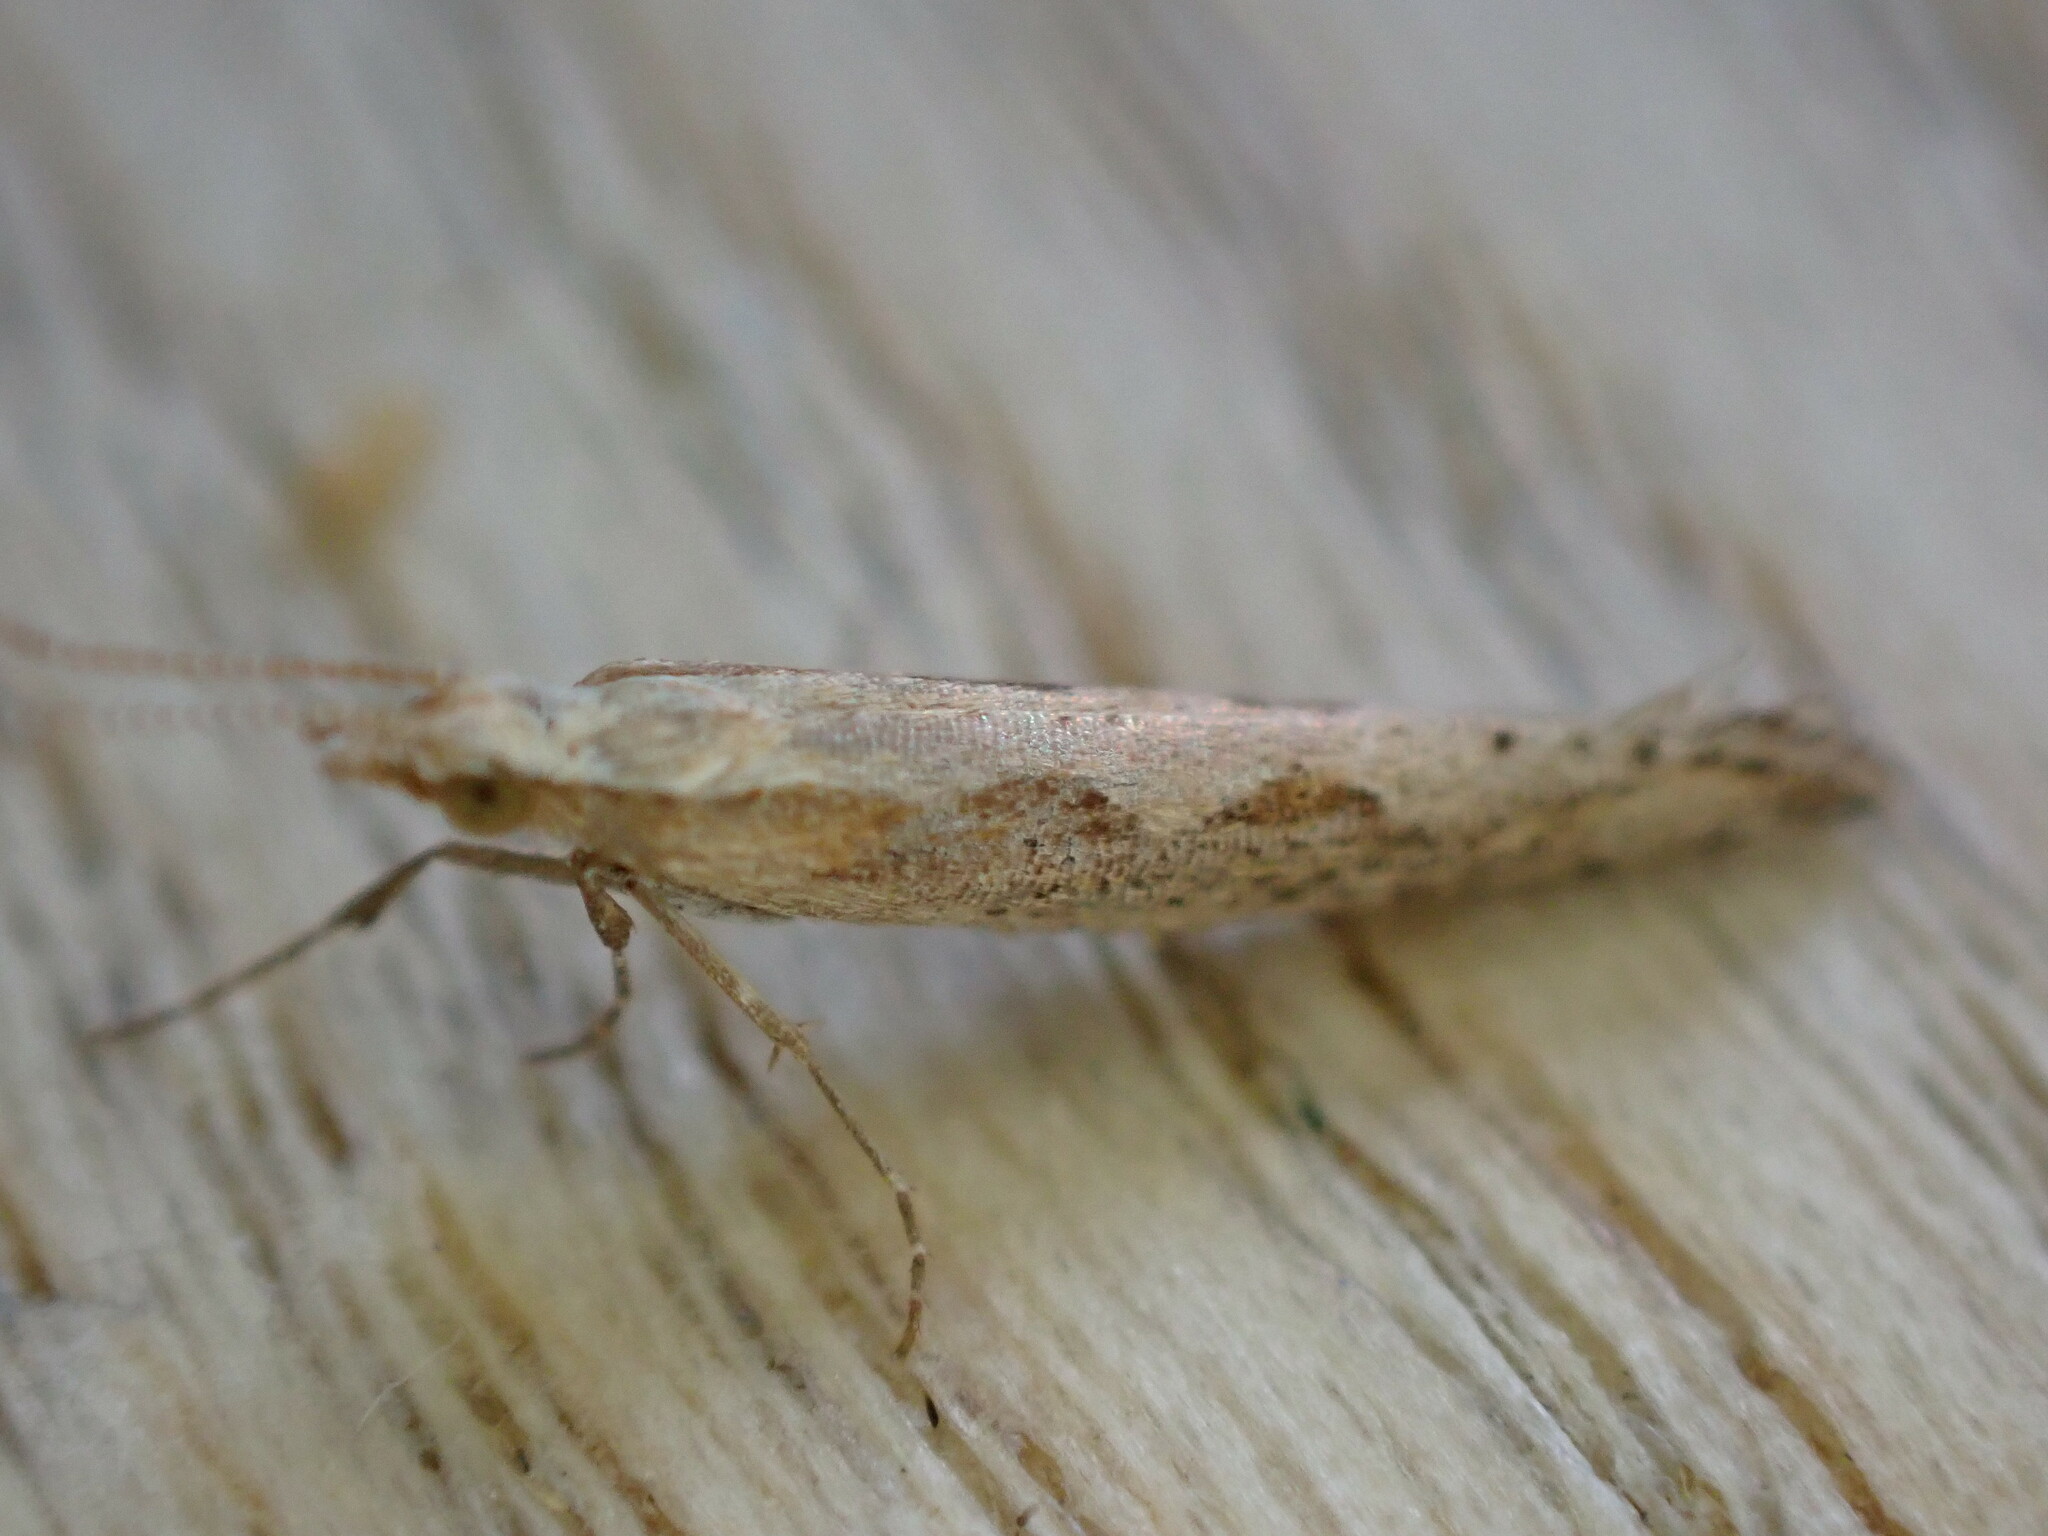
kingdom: Animalia
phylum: Arthropoda
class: Insecta
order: Lepidoptera
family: Plutellidae
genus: Plutella
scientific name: Plutella xylostella
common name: Diamond-back moth
